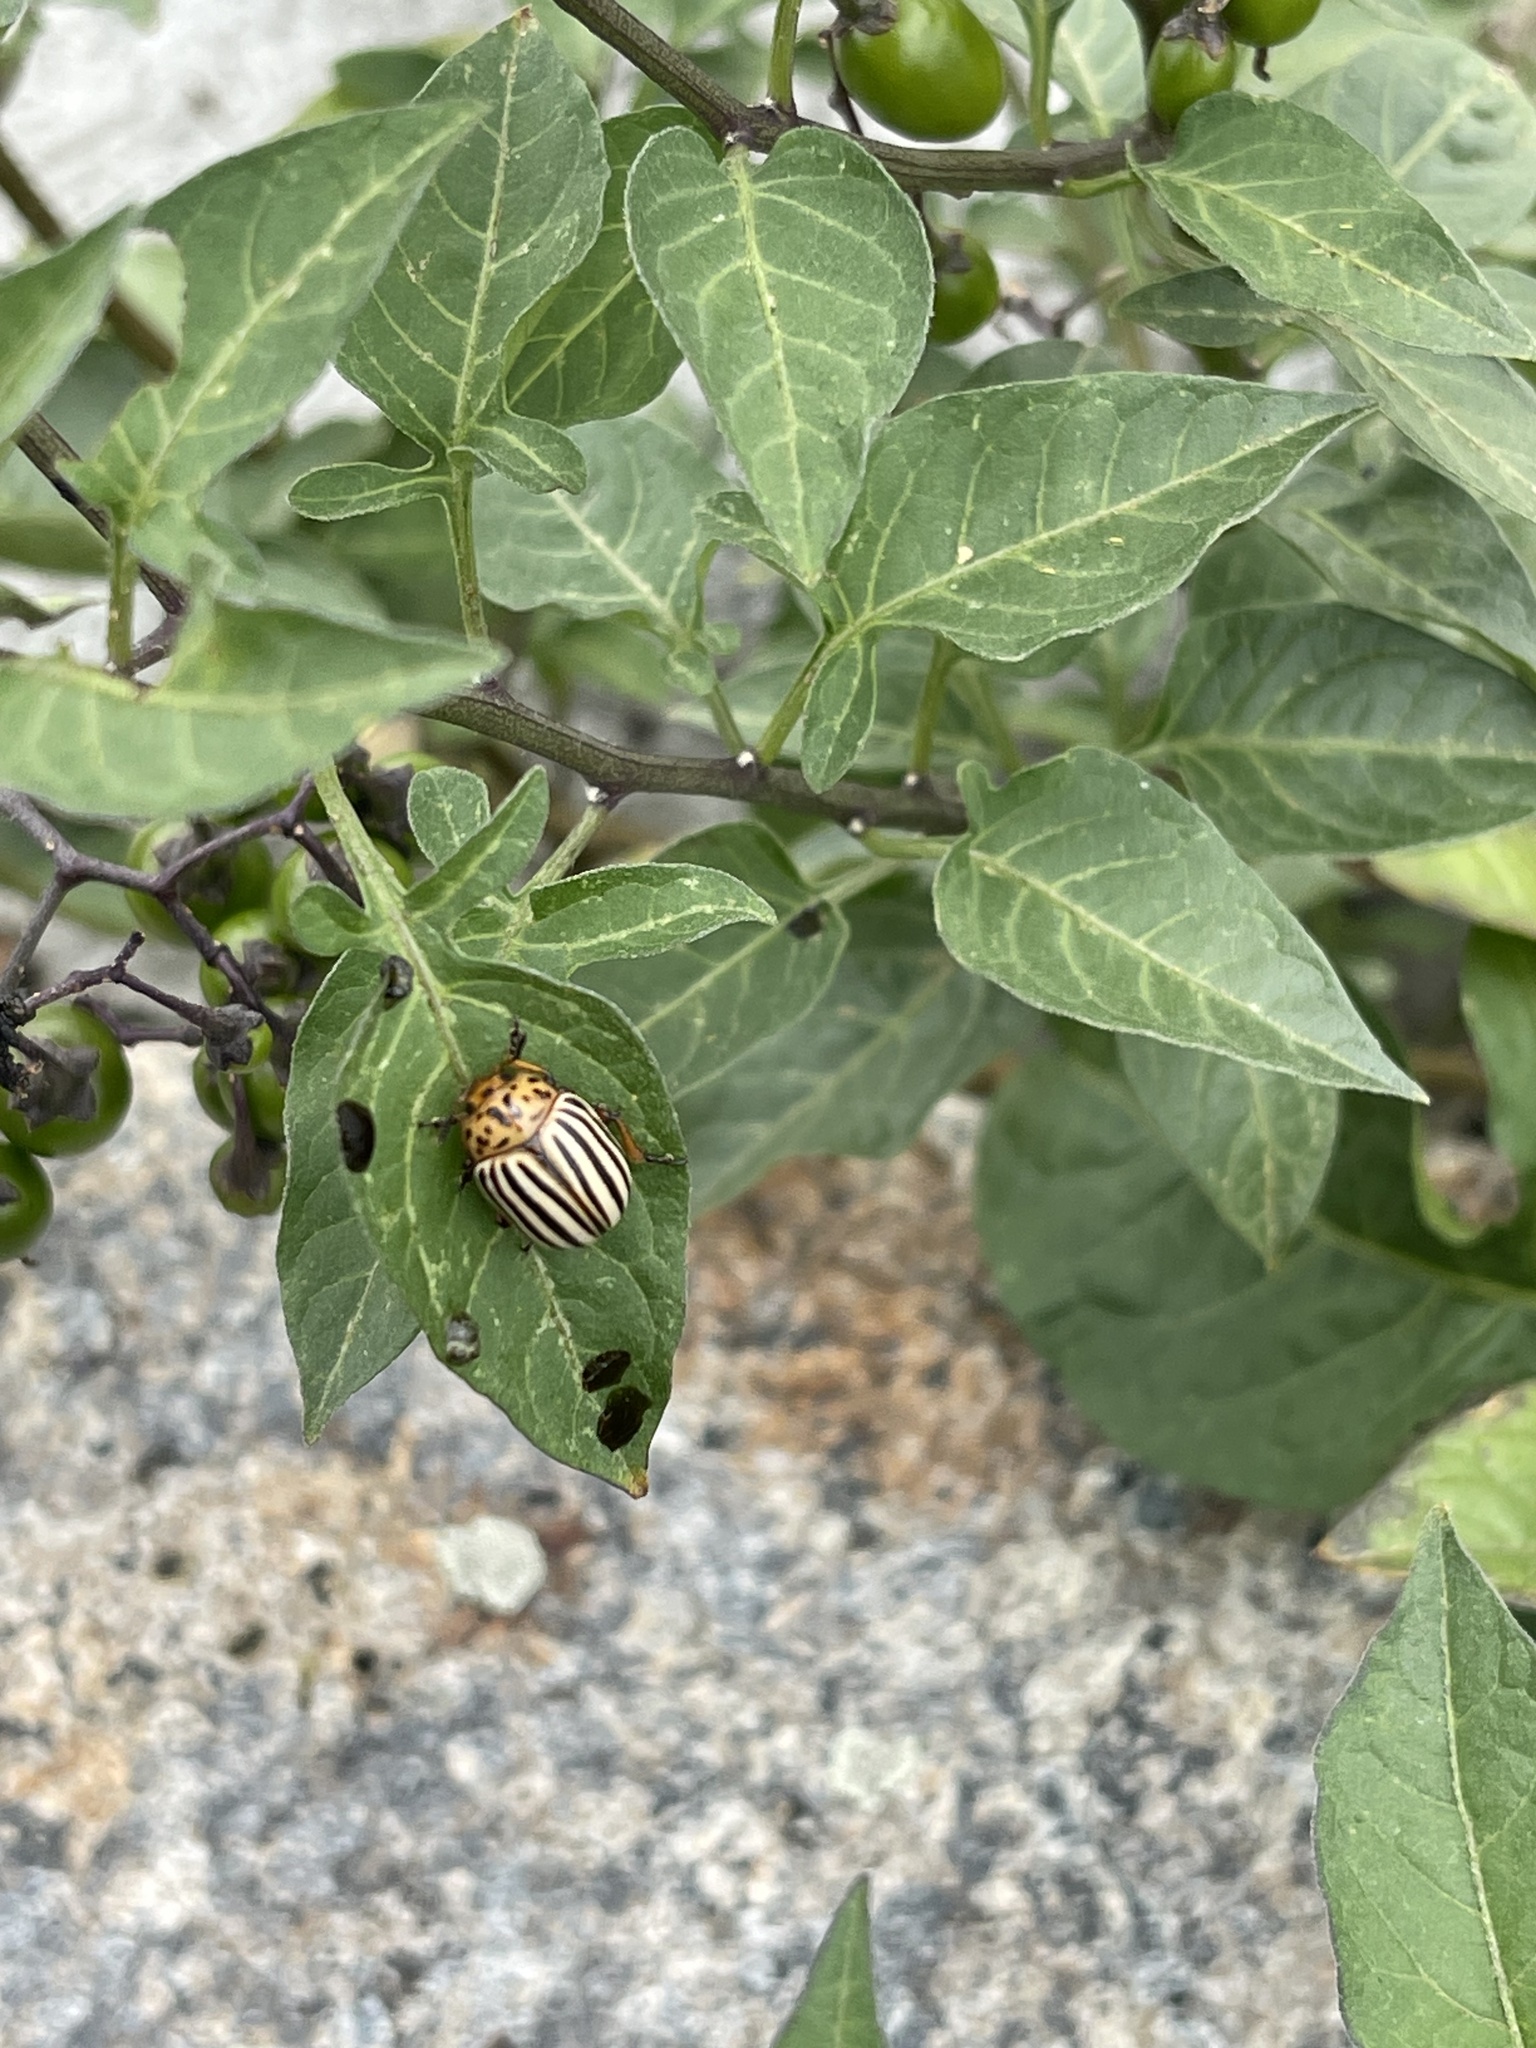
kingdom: Animalia
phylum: Arthropoda
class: Insecta
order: Coleoptera
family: Chrysomelidae
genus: Leptinotarsa
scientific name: Leptinotarsa decemlineata
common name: Colorado potato beetle
